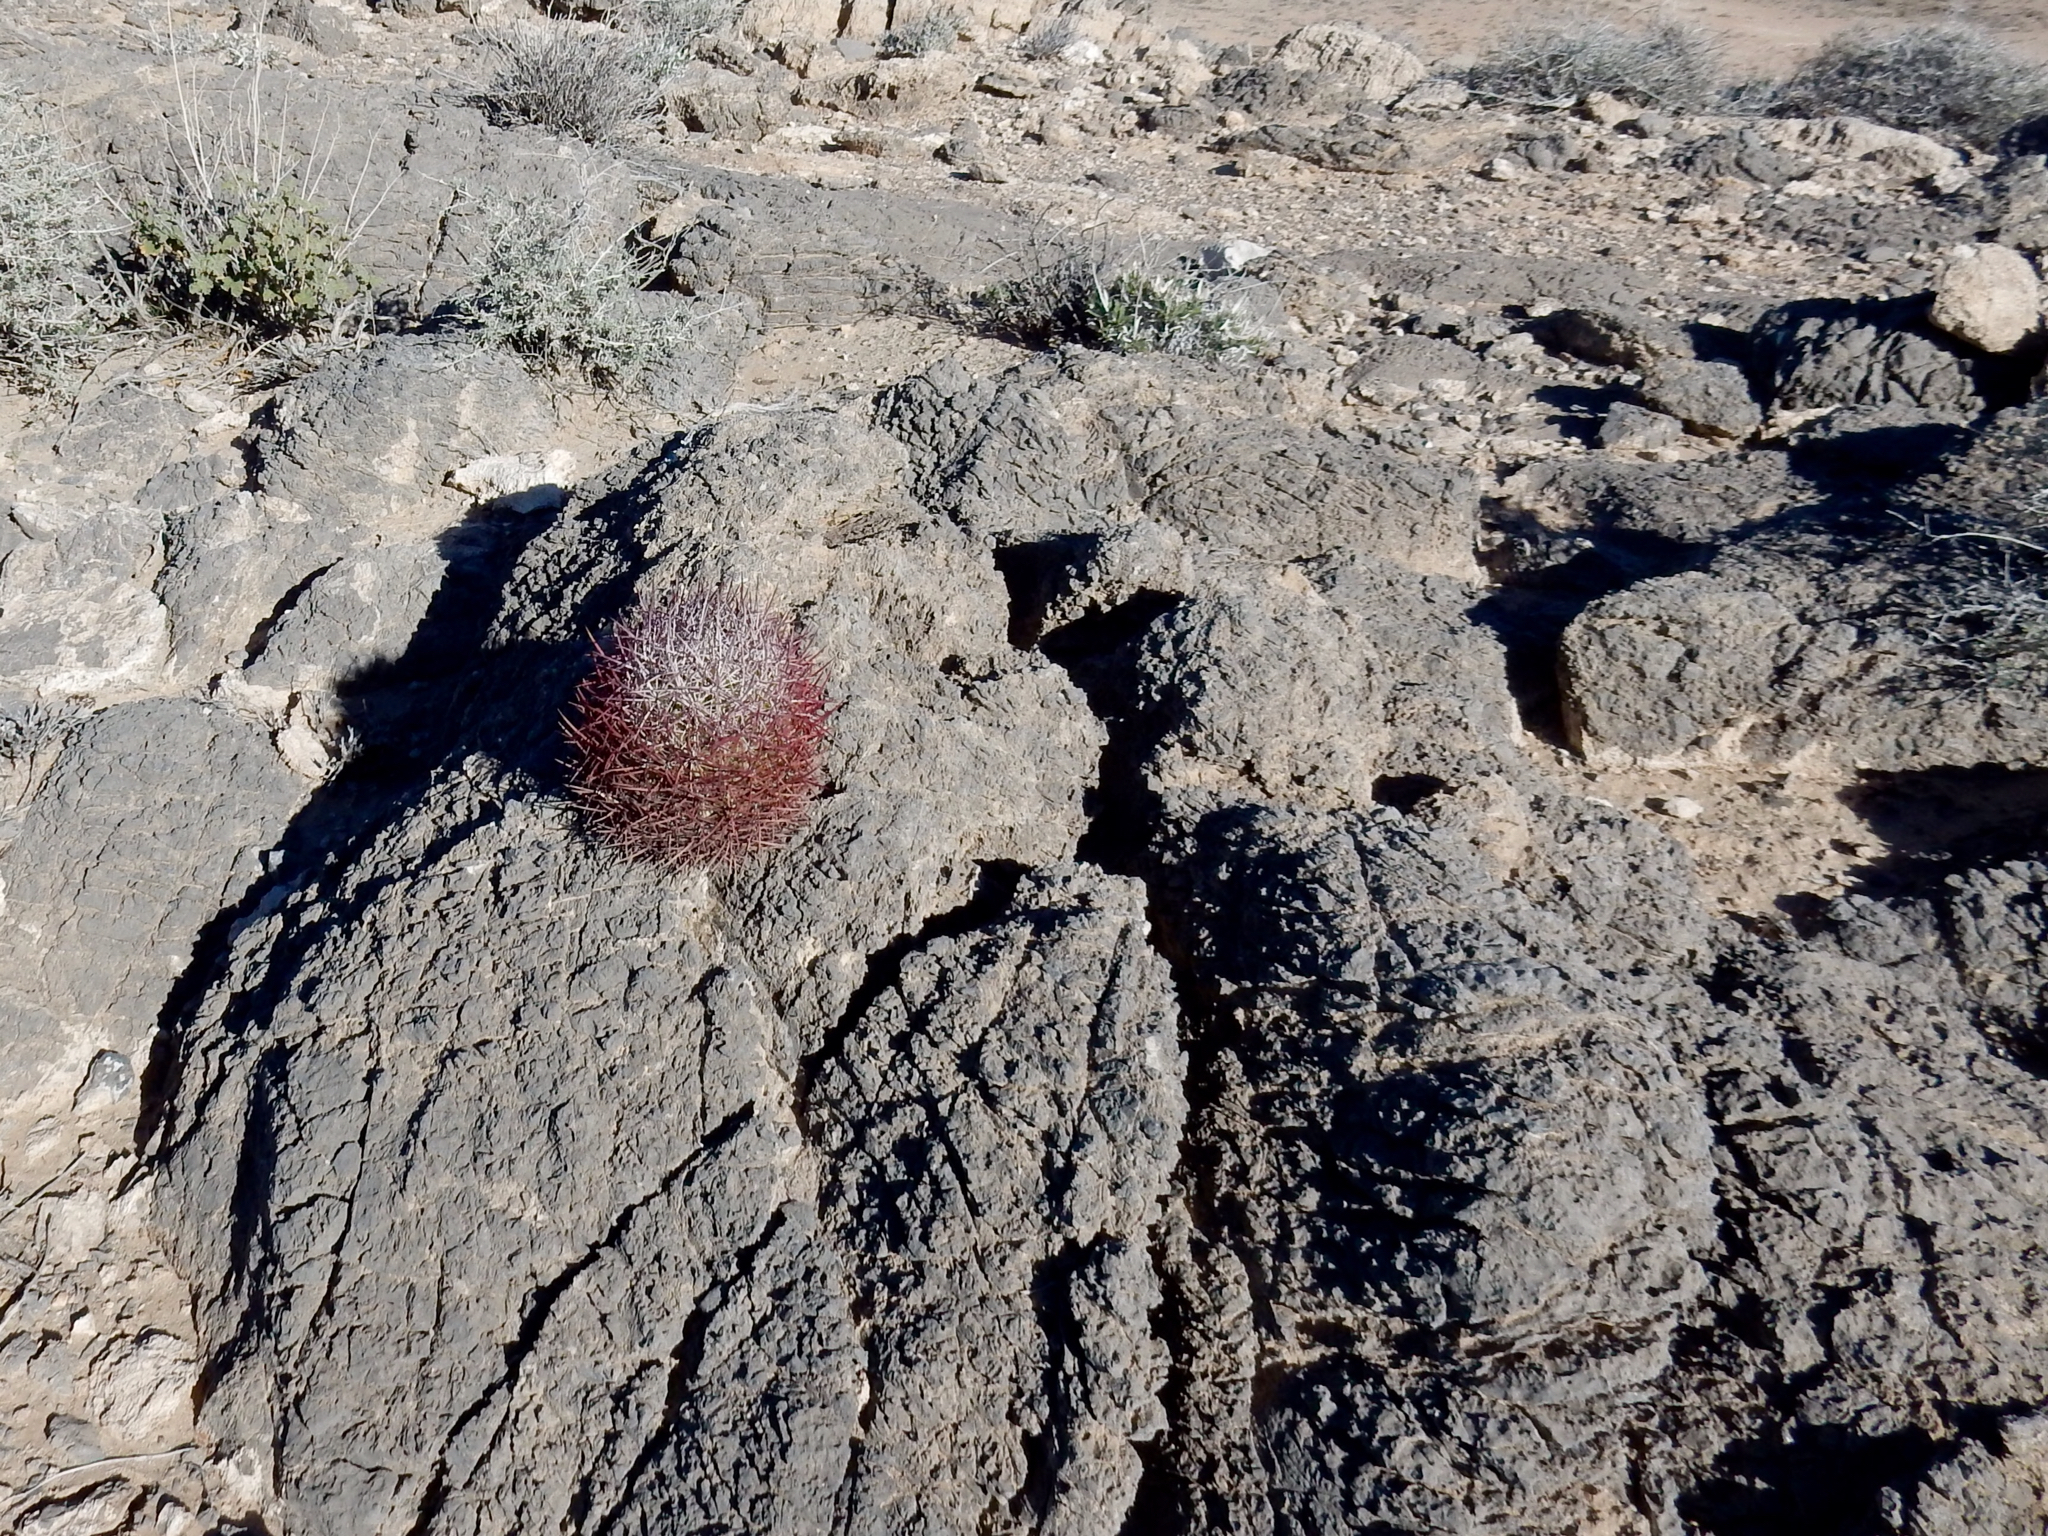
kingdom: Plantae
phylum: Tracheophyta
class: Magnoliopsida
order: Caryophyllales
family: Cactaceae
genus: Sclerocactus
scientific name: Sclerocactus johnsonii
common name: Eight-spine fishhook cactus
